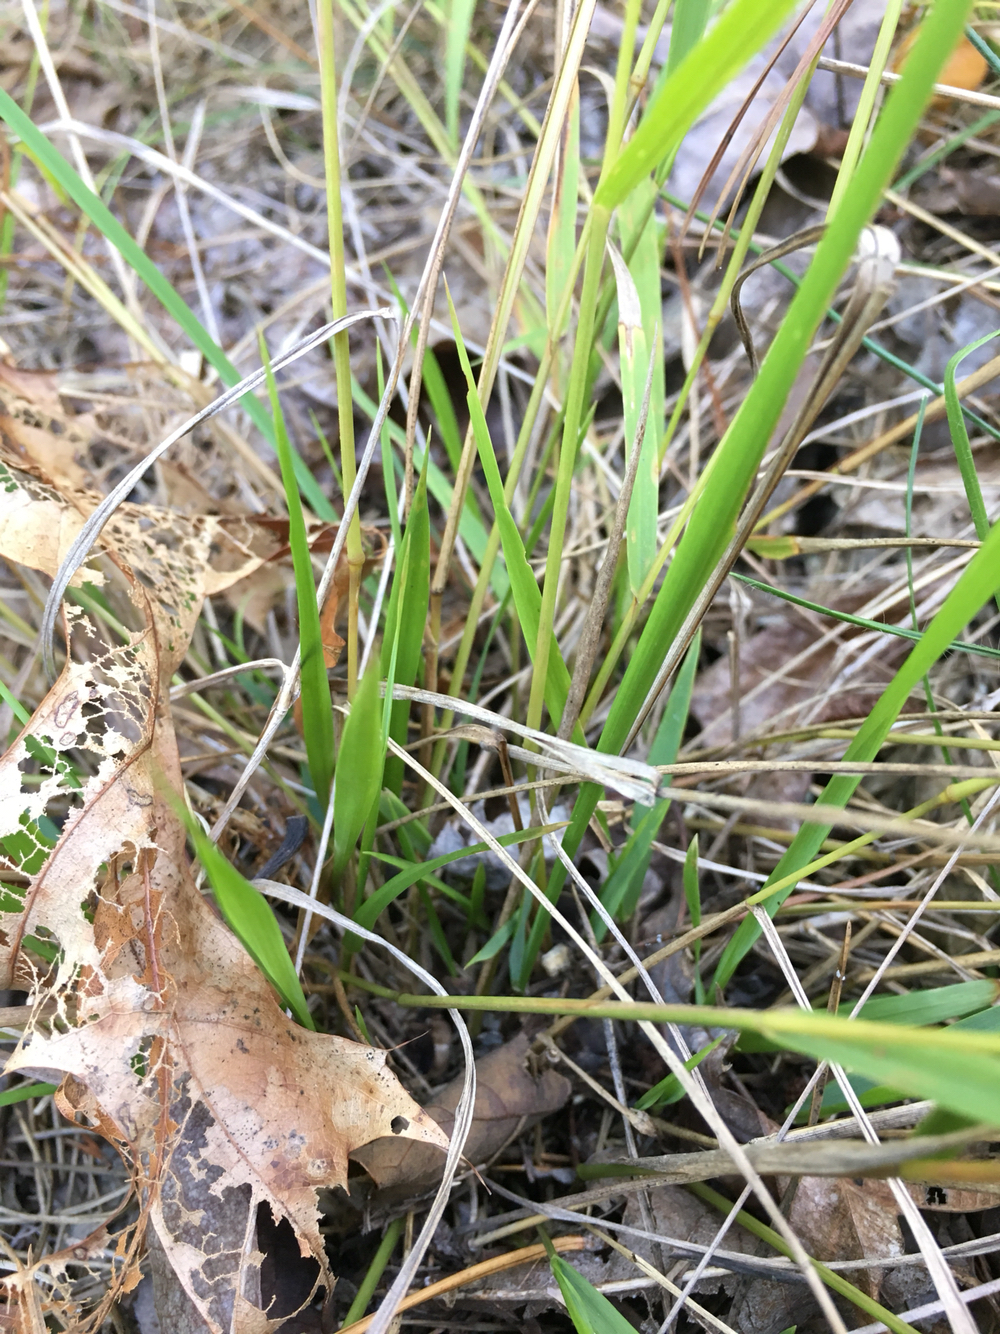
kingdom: Plantae
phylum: Tracheophyta
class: Liliopsida
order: Poales
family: Poaceae
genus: Chasmanthium
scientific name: Chasmanthium laxum
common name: Slender chasmanthium
